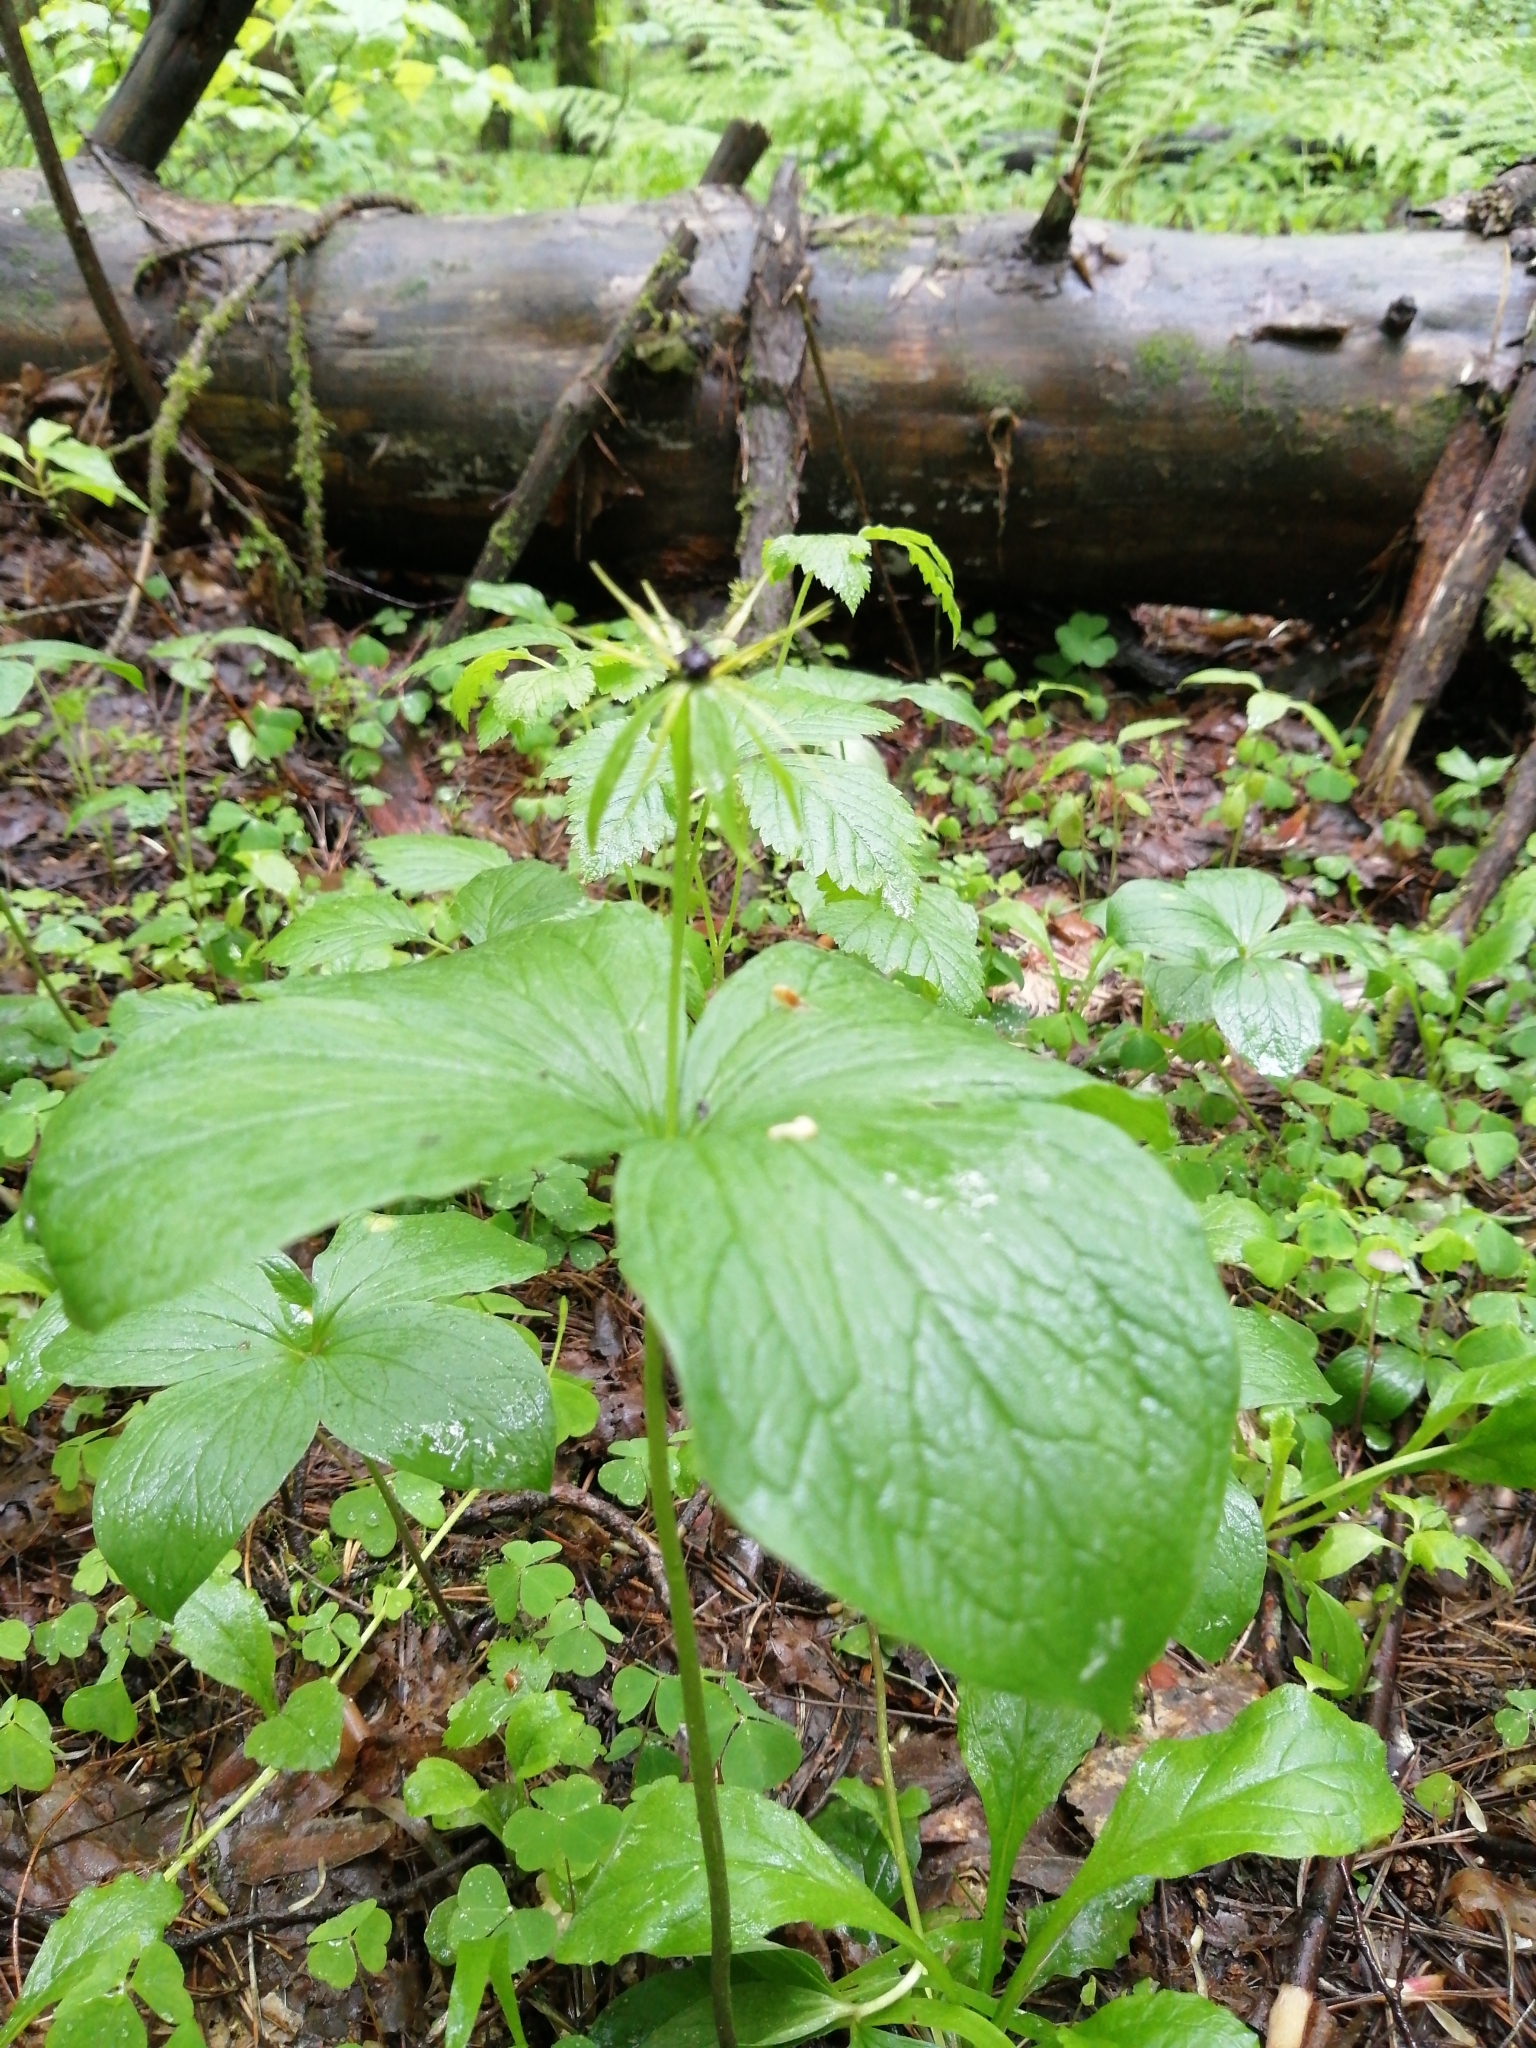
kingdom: Plantae
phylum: Tracheophyta
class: Liliopsida
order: Liliales
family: Melanthiaceae
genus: Paris
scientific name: Paris quadrifolia
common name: Herb-paris
